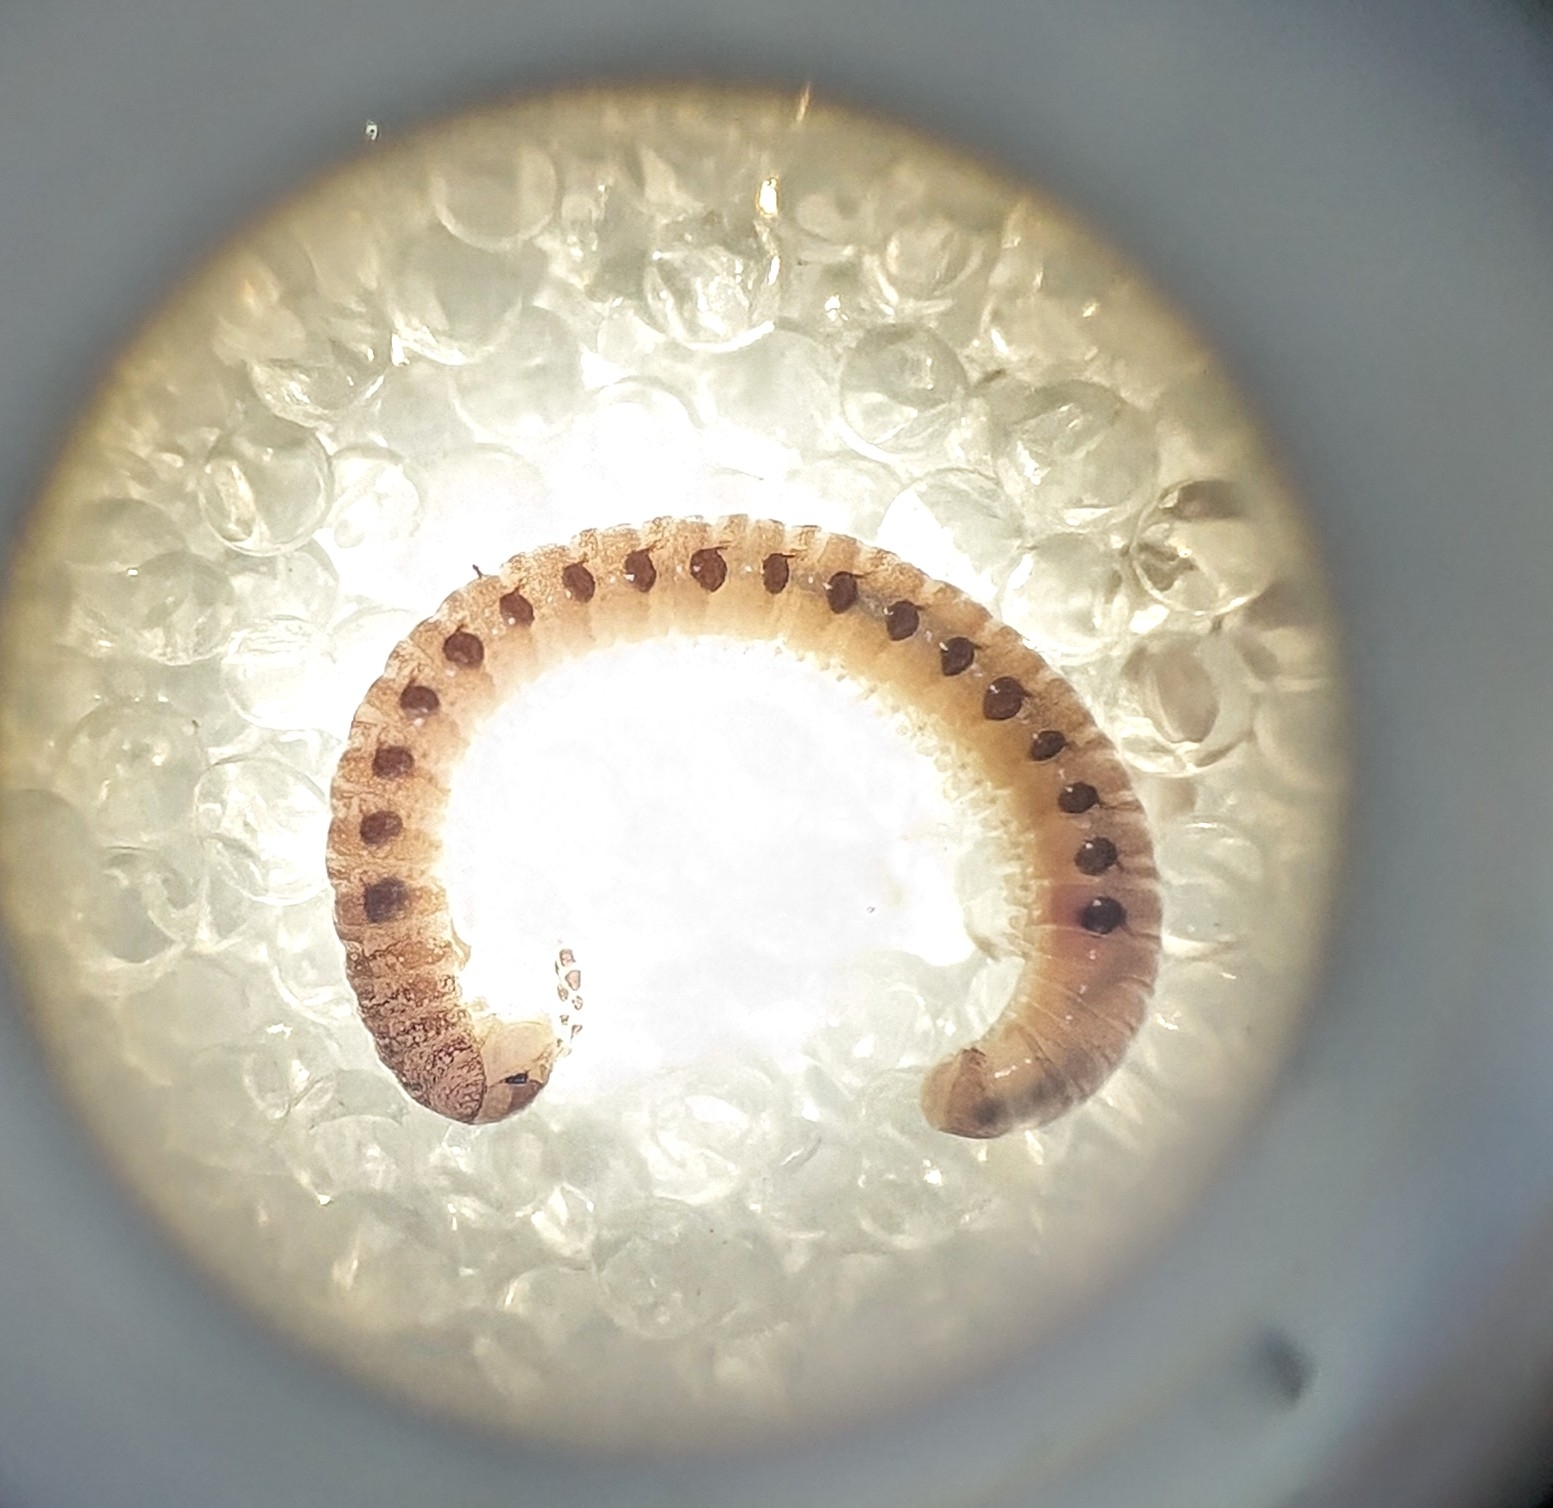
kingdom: Animalia
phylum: Arthropoda
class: Diplopoda
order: Julida
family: Blaniulidae
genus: Proteroiulus
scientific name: Proteroiulus fuscus
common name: Millipede
